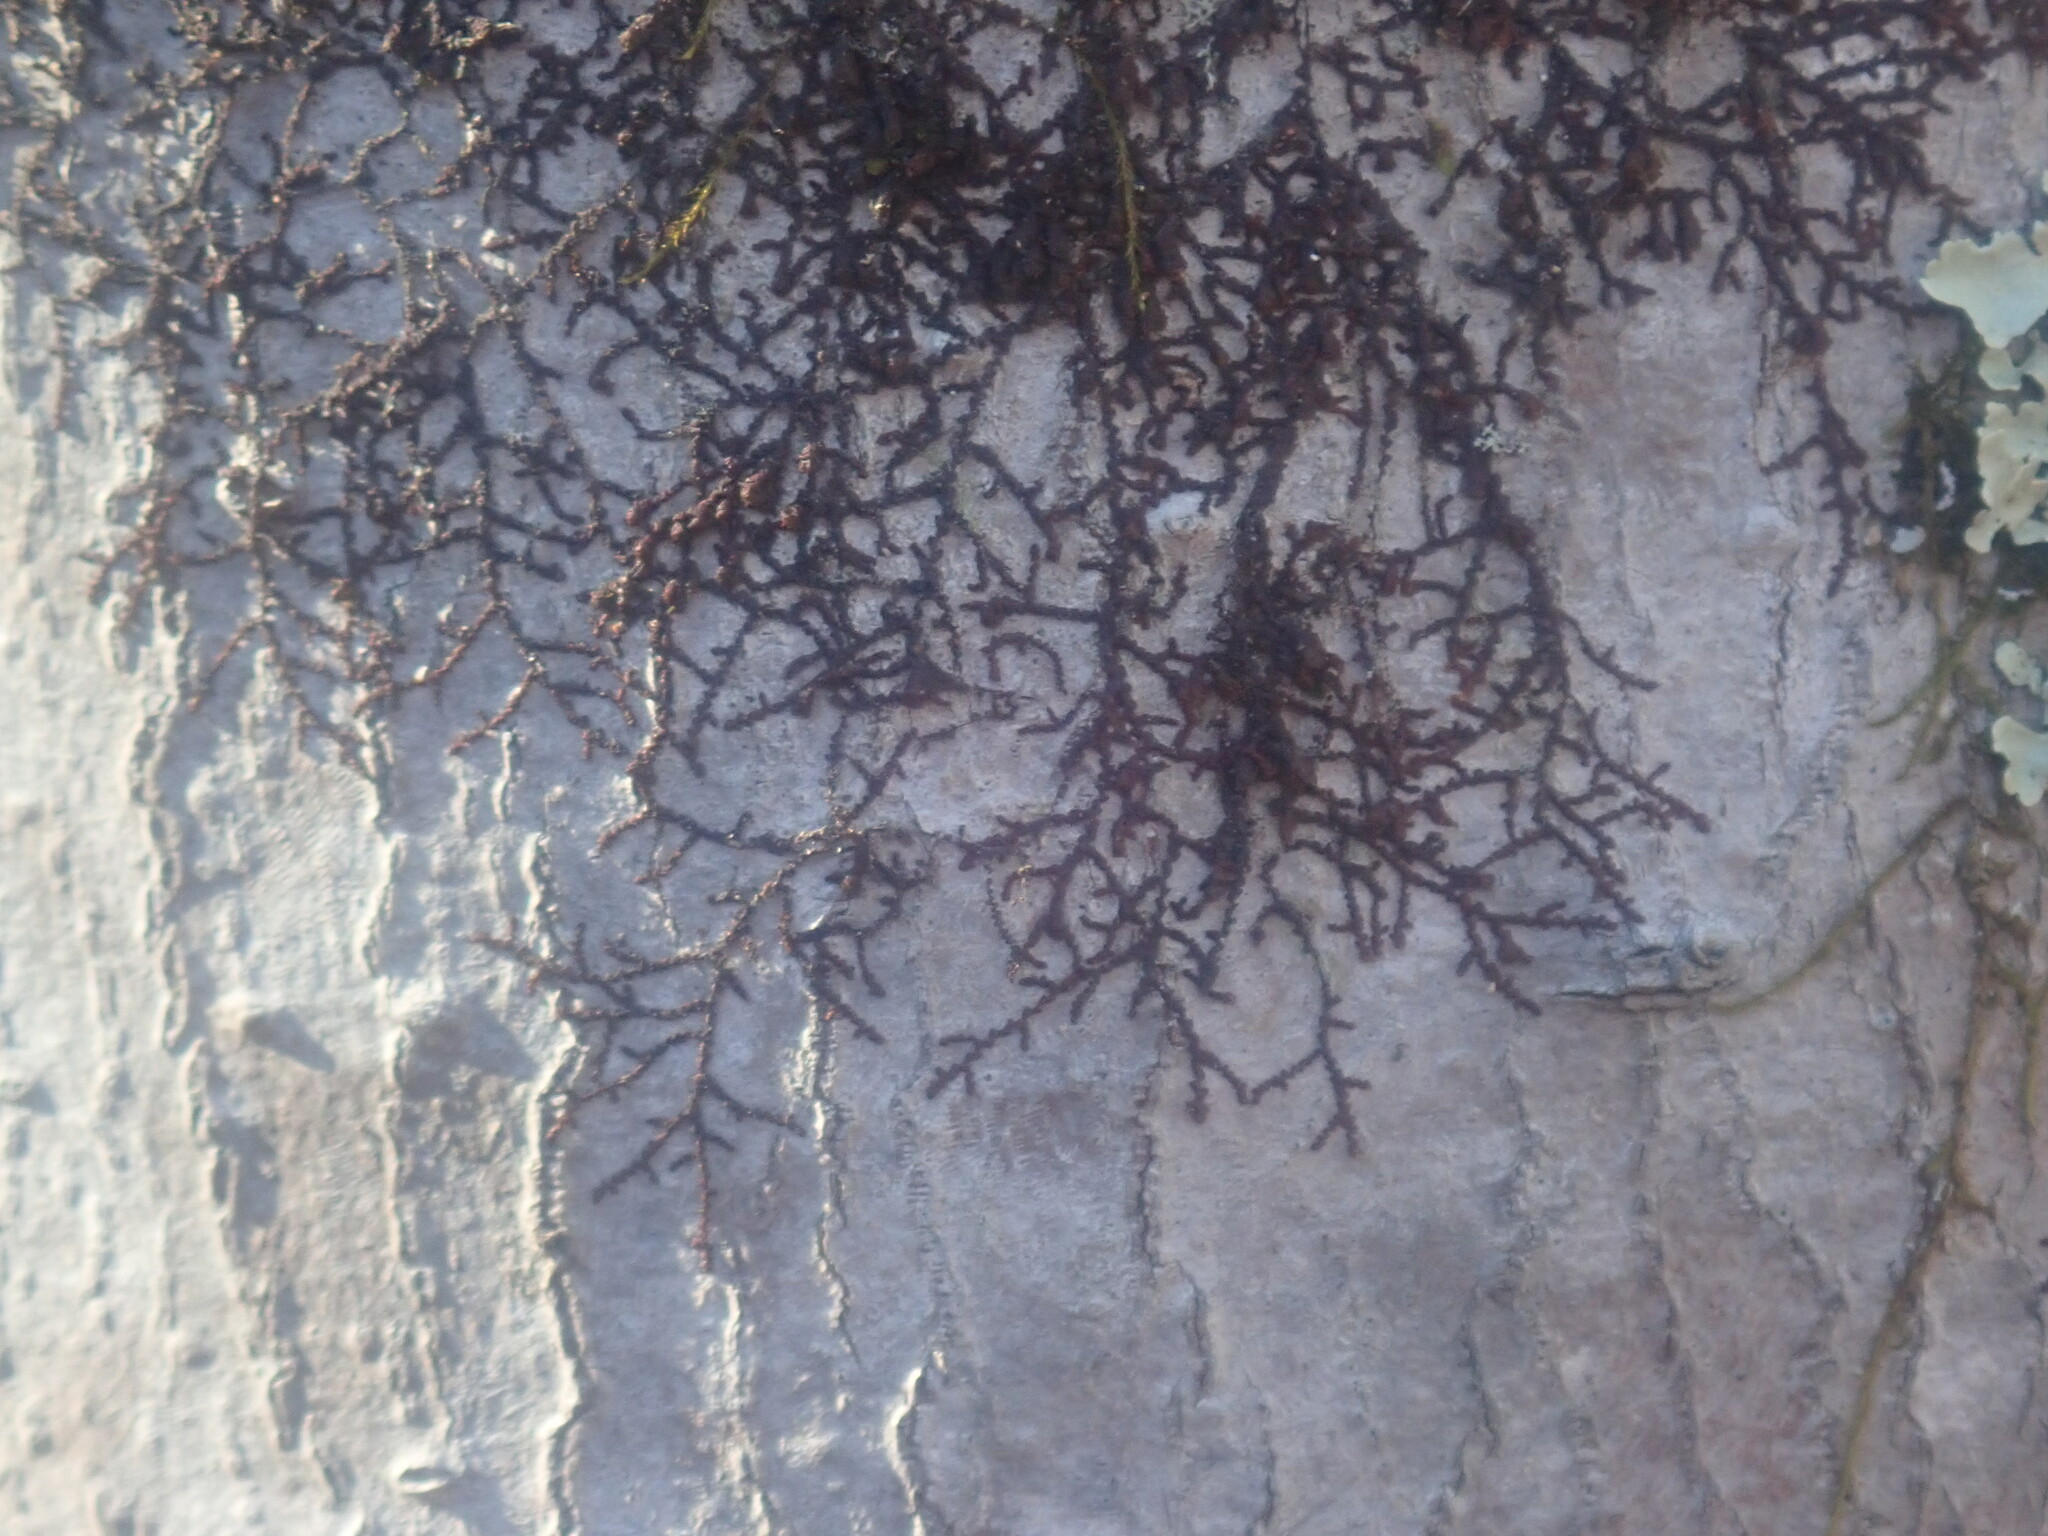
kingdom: Plantae
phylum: Marchantiophyta
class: Jungermanniopsida
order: Porellales
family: Frullaniaceae
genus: Frullania
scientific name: Frullania
